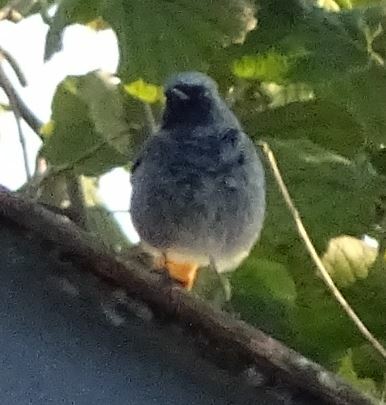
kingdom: Animalia
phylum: Chordata
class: Aves
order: Passeriformes
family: Muscicapidae
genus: Phoenicurus
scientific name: Phoenicurus ochruros
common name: Black redstart
